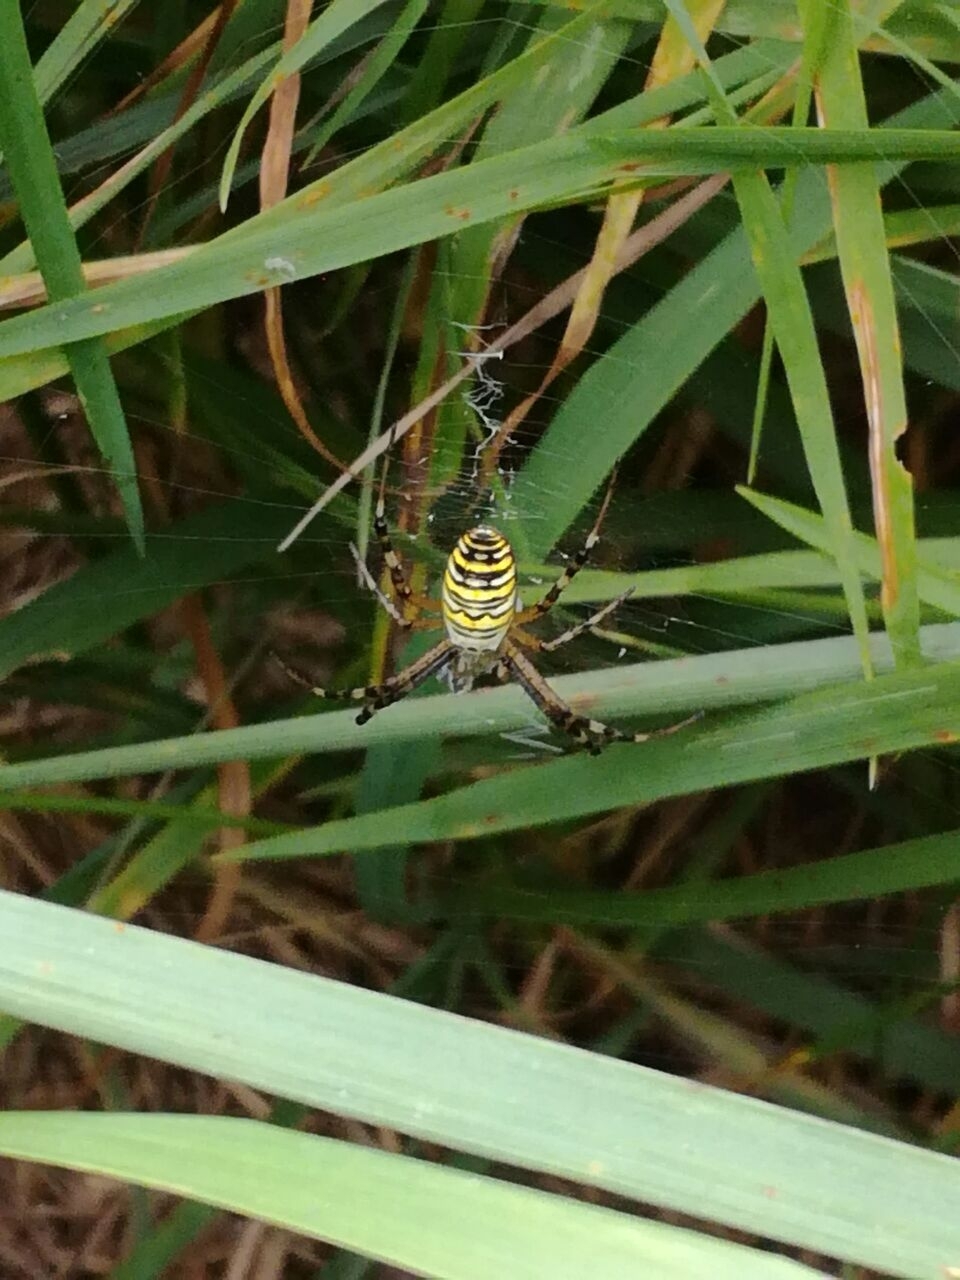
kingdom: Animalia
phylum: Arthropoda
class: Arachnida
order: Araneae
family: Araneidae
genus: Argiope
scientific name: Argiope bruennichi
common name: Wasp spider
